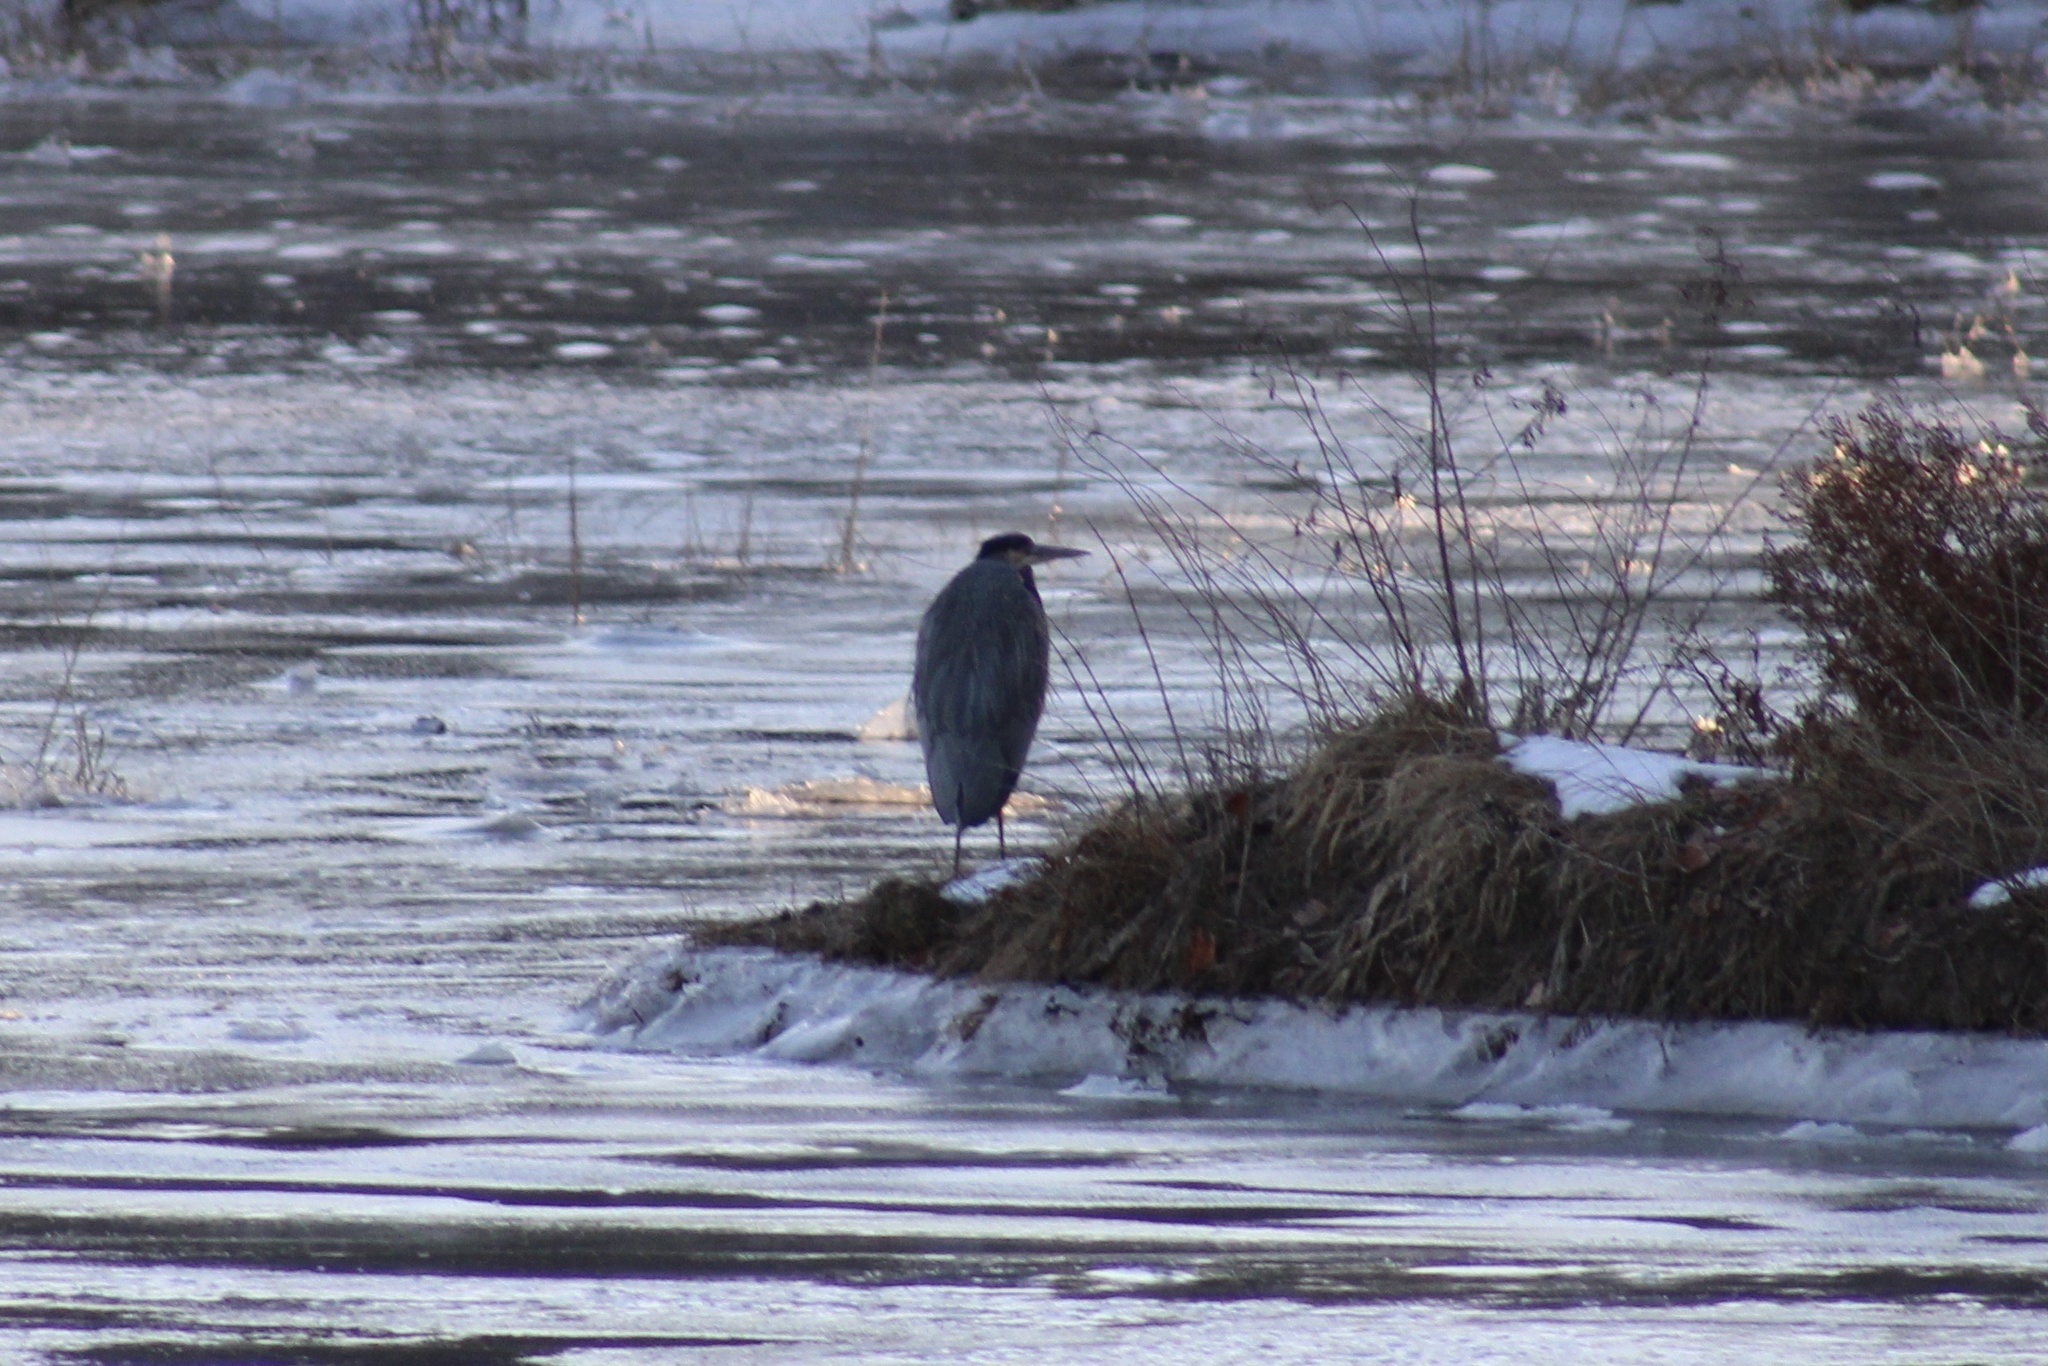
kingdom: Animalia
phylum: Chordata
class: Aves
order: Pelecaniformes
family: Ardeidae
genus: Ardea
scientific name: Ardea herodias
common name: Great blue heron
